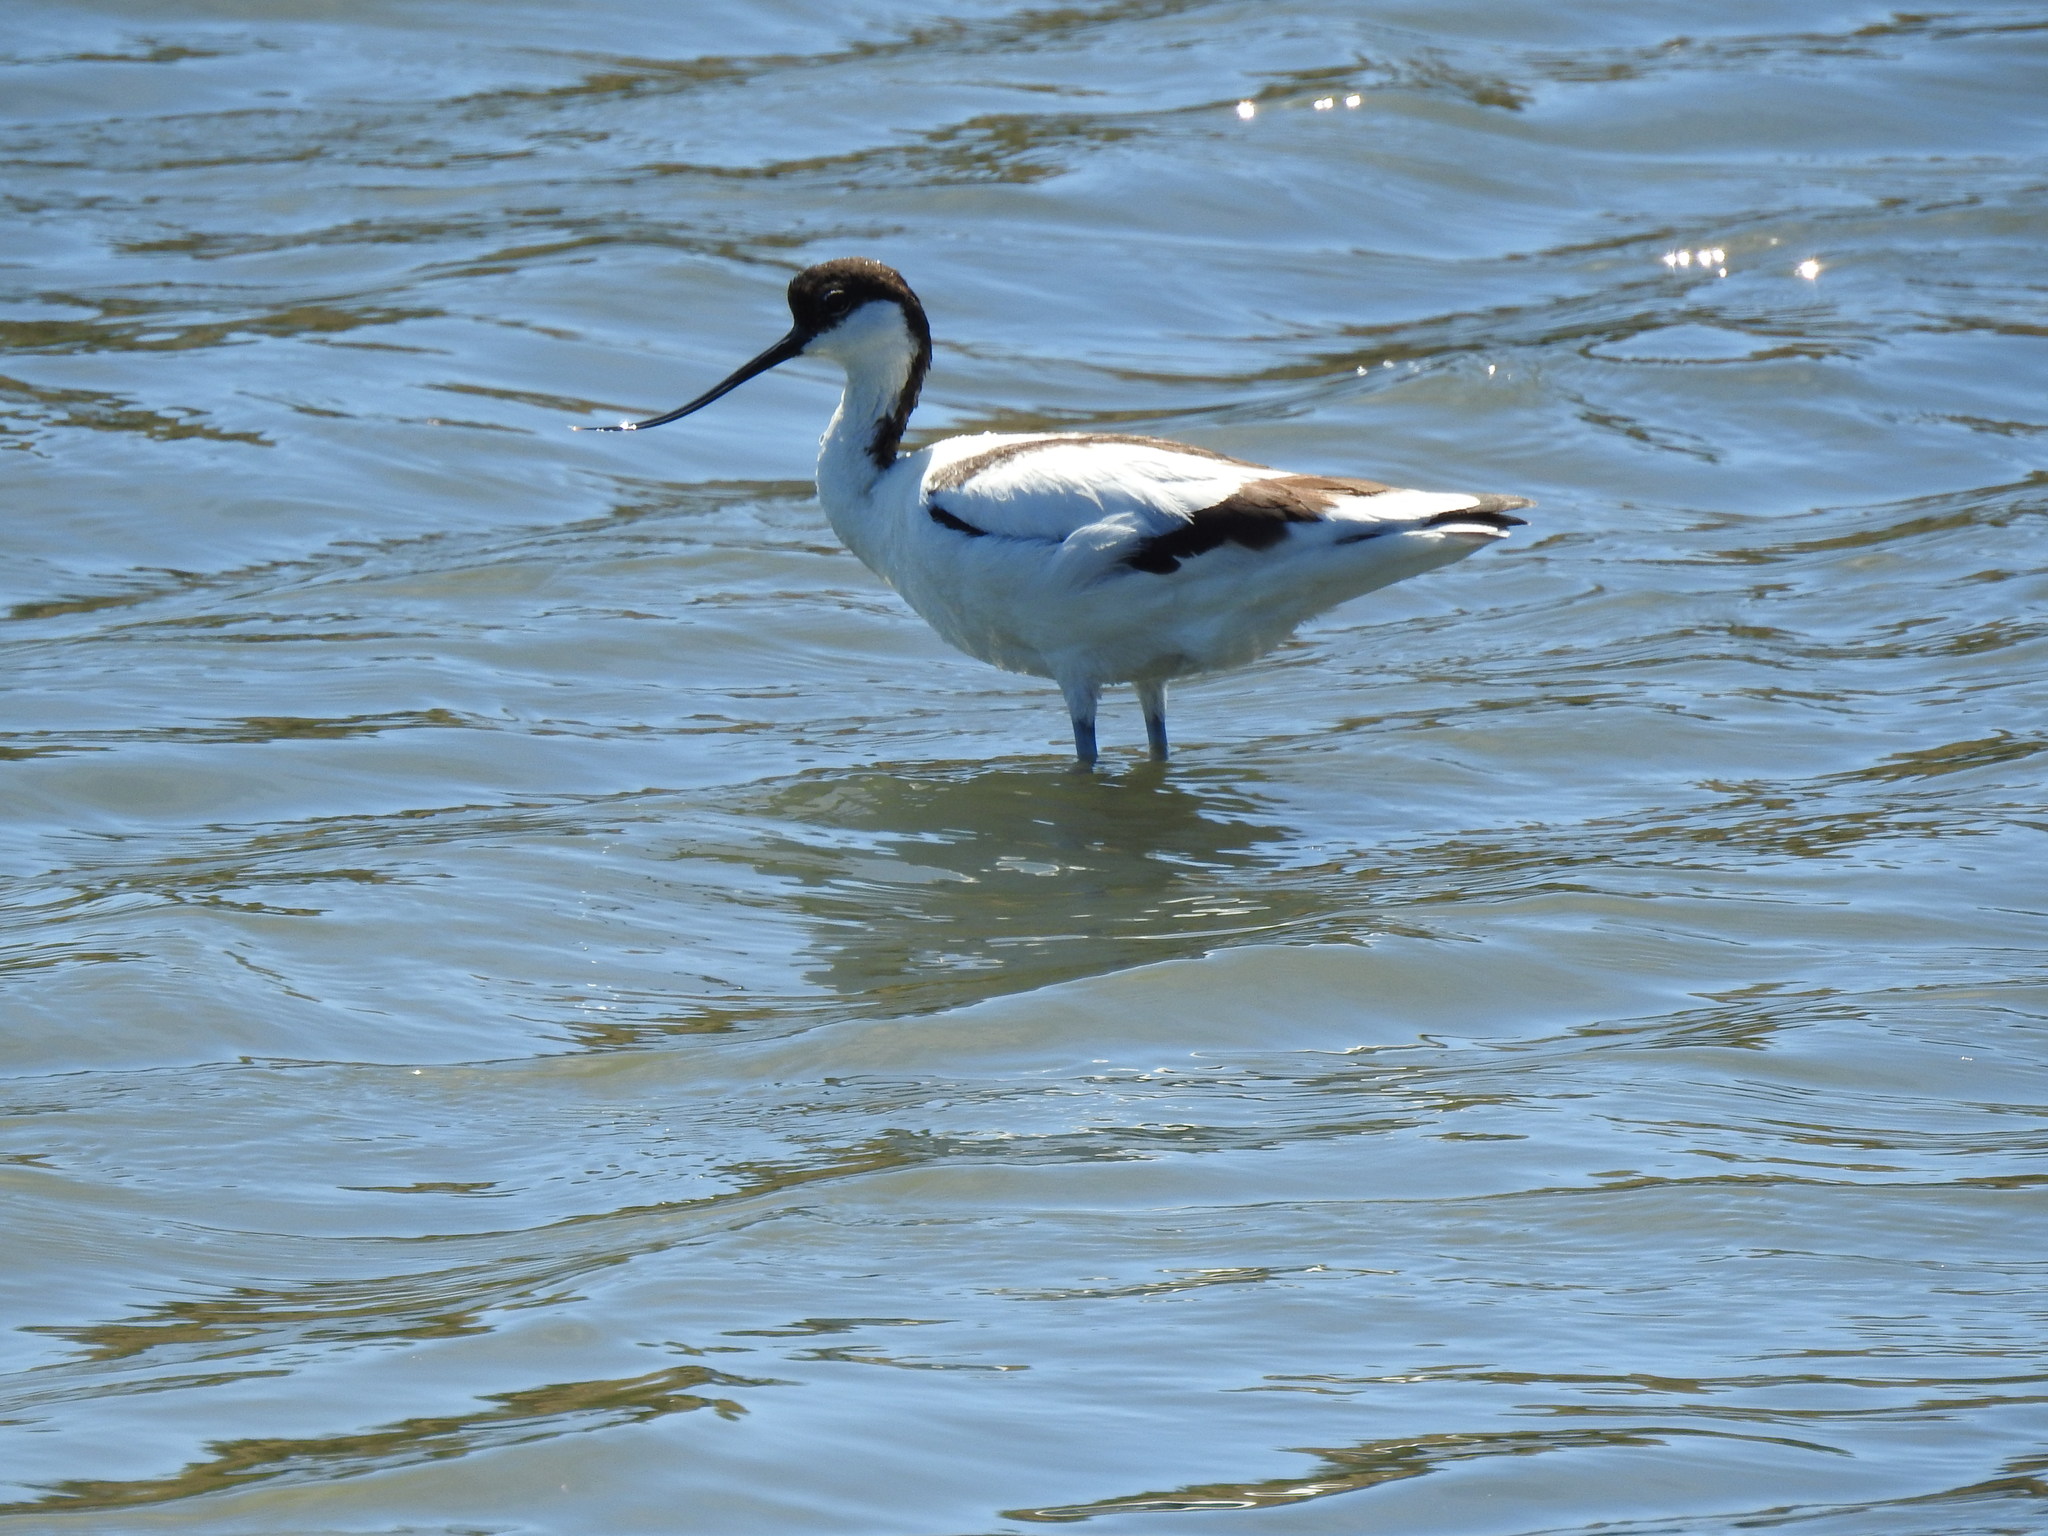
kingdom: Animalia
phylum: Chordata
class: Aves
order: Charadriiformes
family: Recurvirostridae
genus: Recurvirostra
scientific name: Recurvirostra avosetta
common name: Pied avocet
